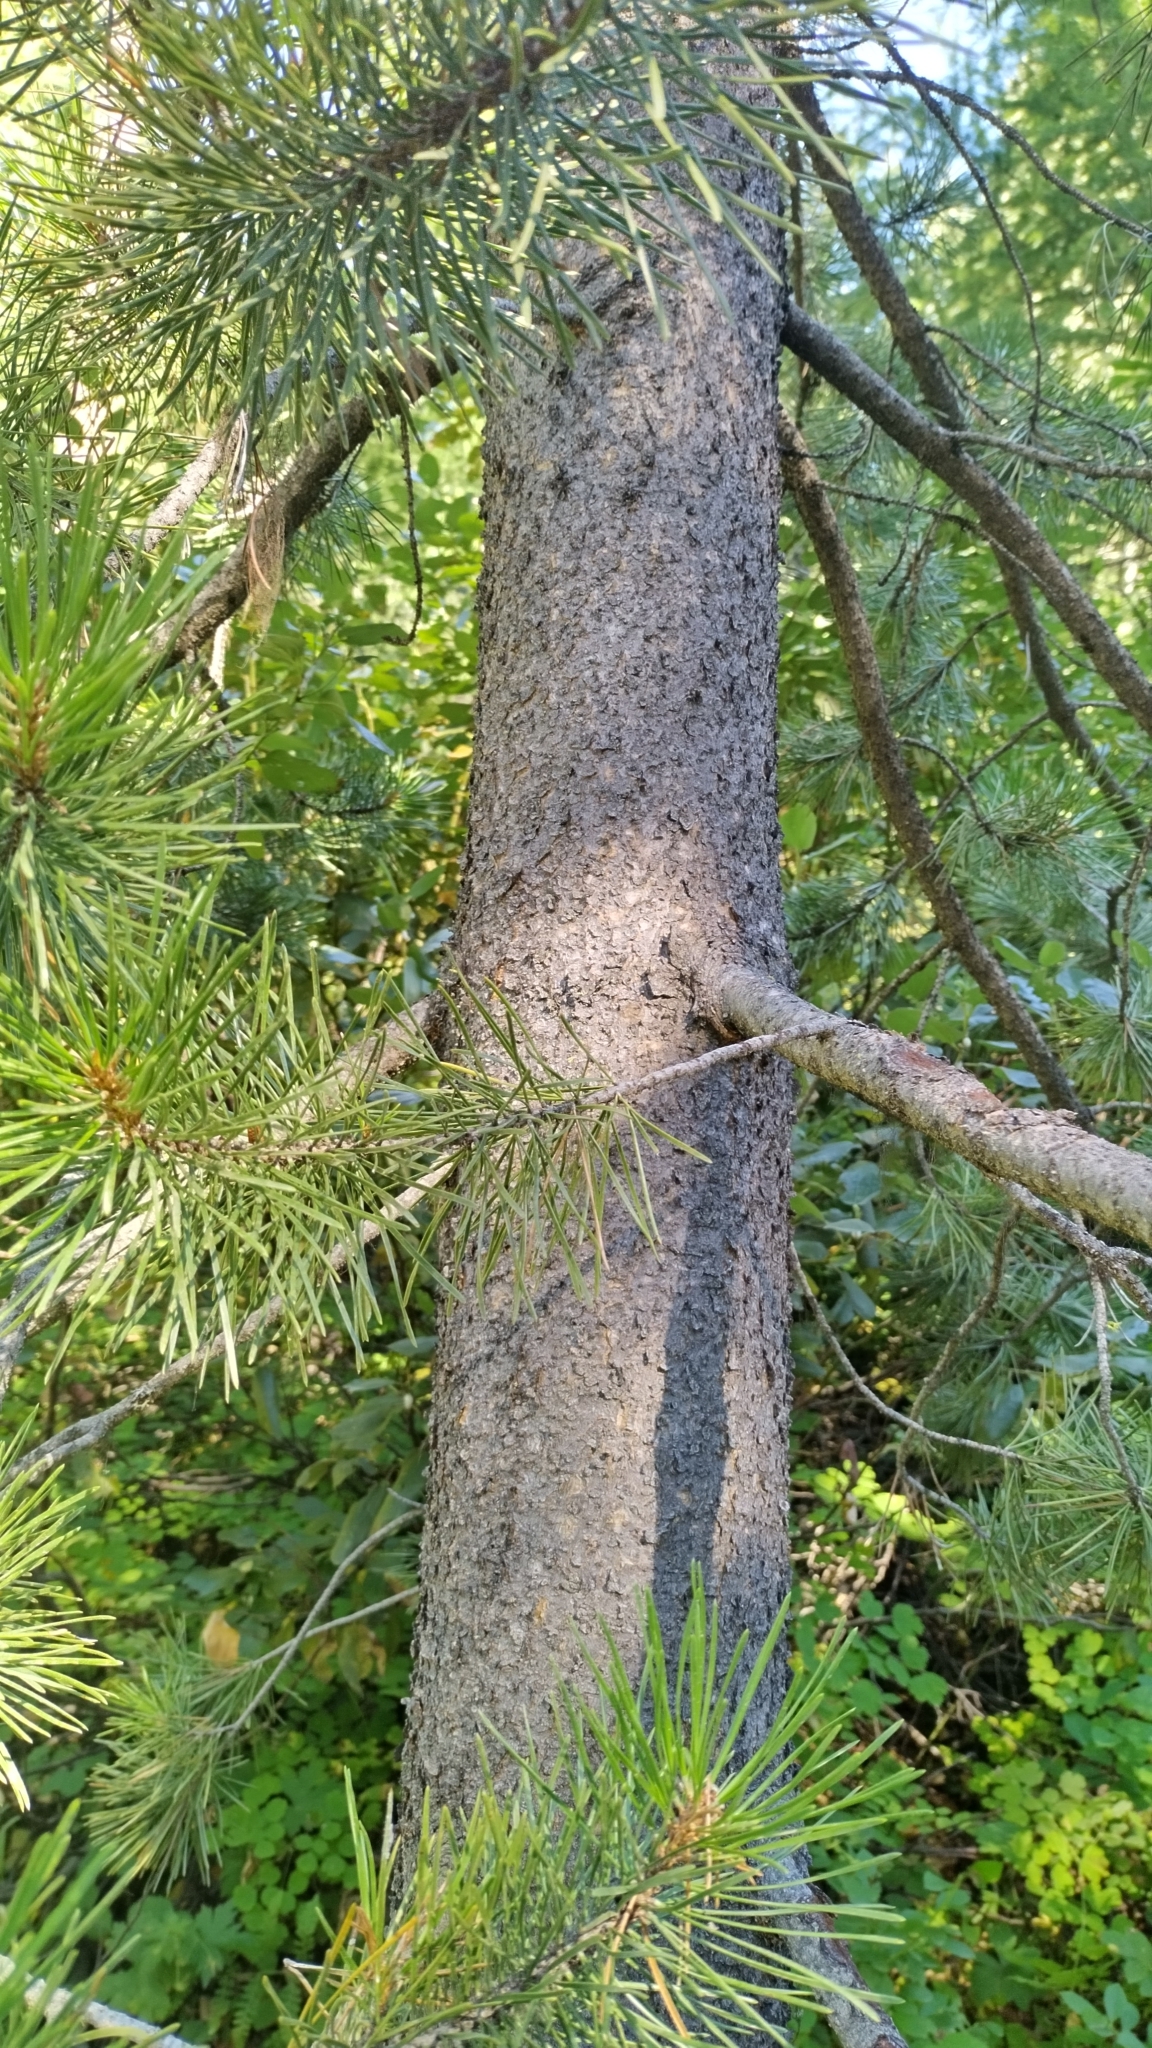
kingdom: Plantae
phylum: Tracheophyta
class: Pinopsida
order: Pinales
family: Pinaceae
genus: Pinus
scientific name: Pinus contorta
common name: Lodgepole pine
